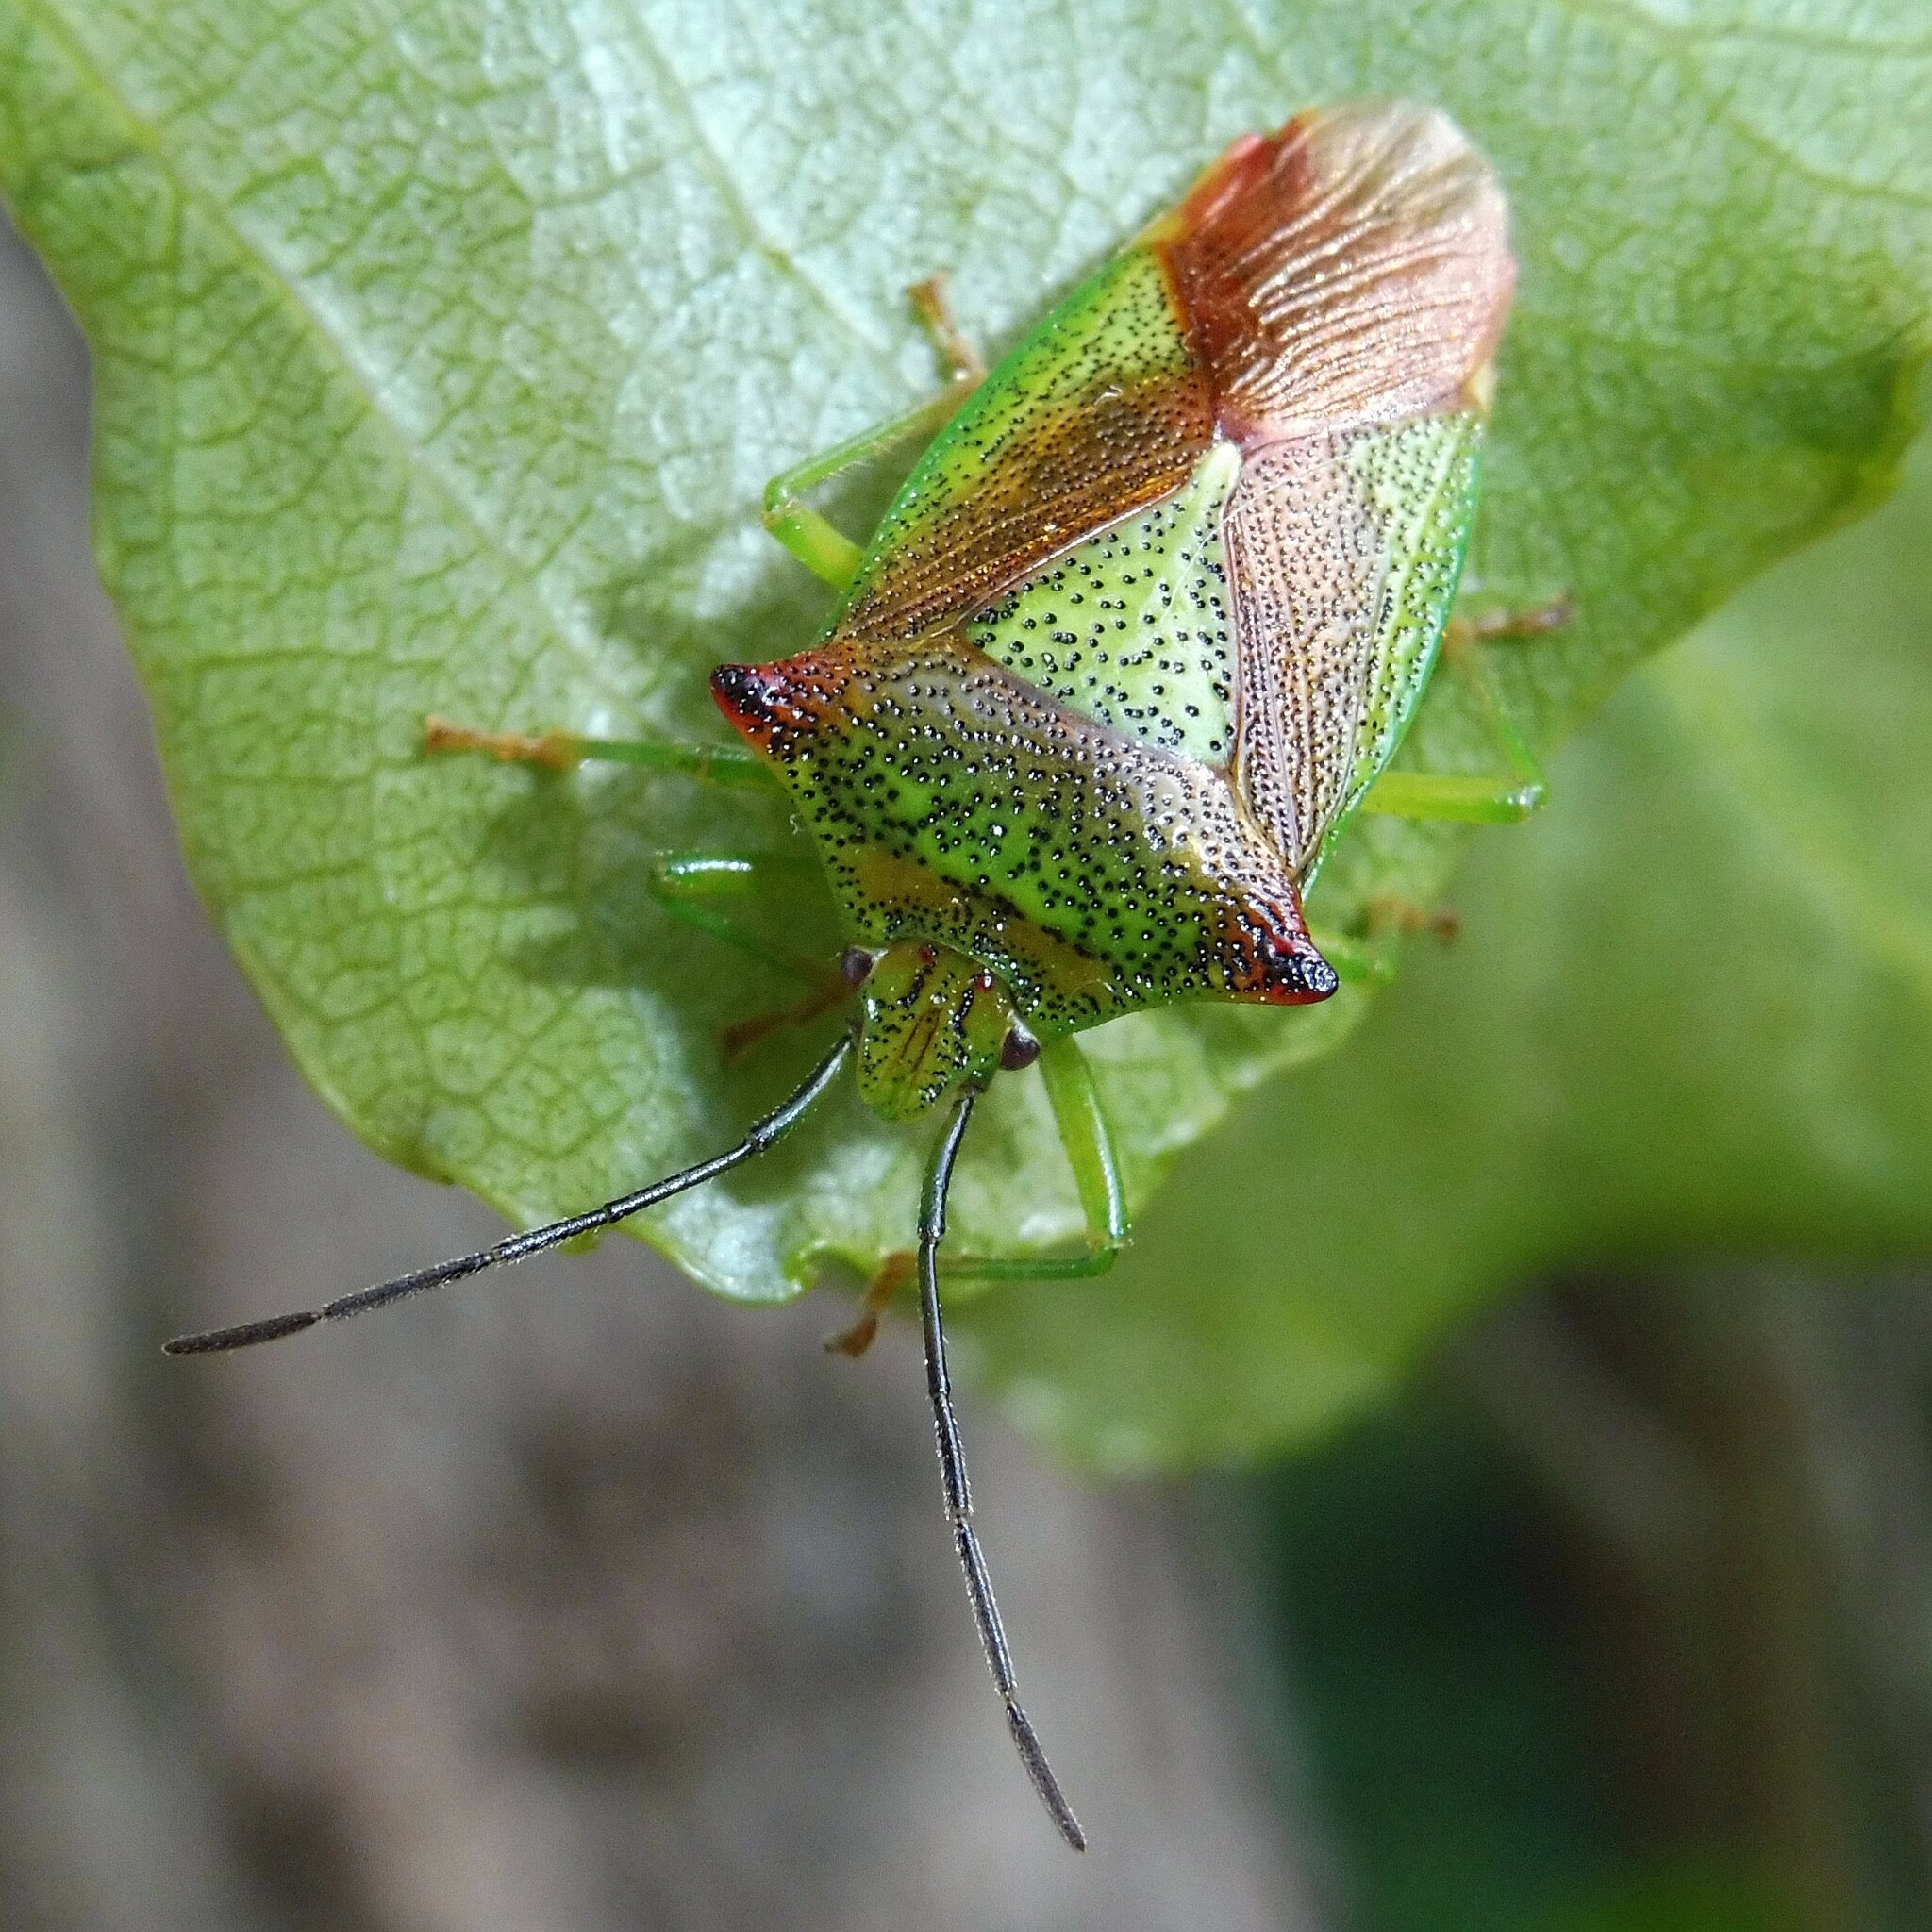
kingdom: Animalia
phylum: Arthropoda
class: Insecta
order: Hemiptera
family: Acanthosomatidae
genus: Acanthosoma
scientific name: Acanthosoma haemorrhoidale
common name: Hawthorn shieldbug
